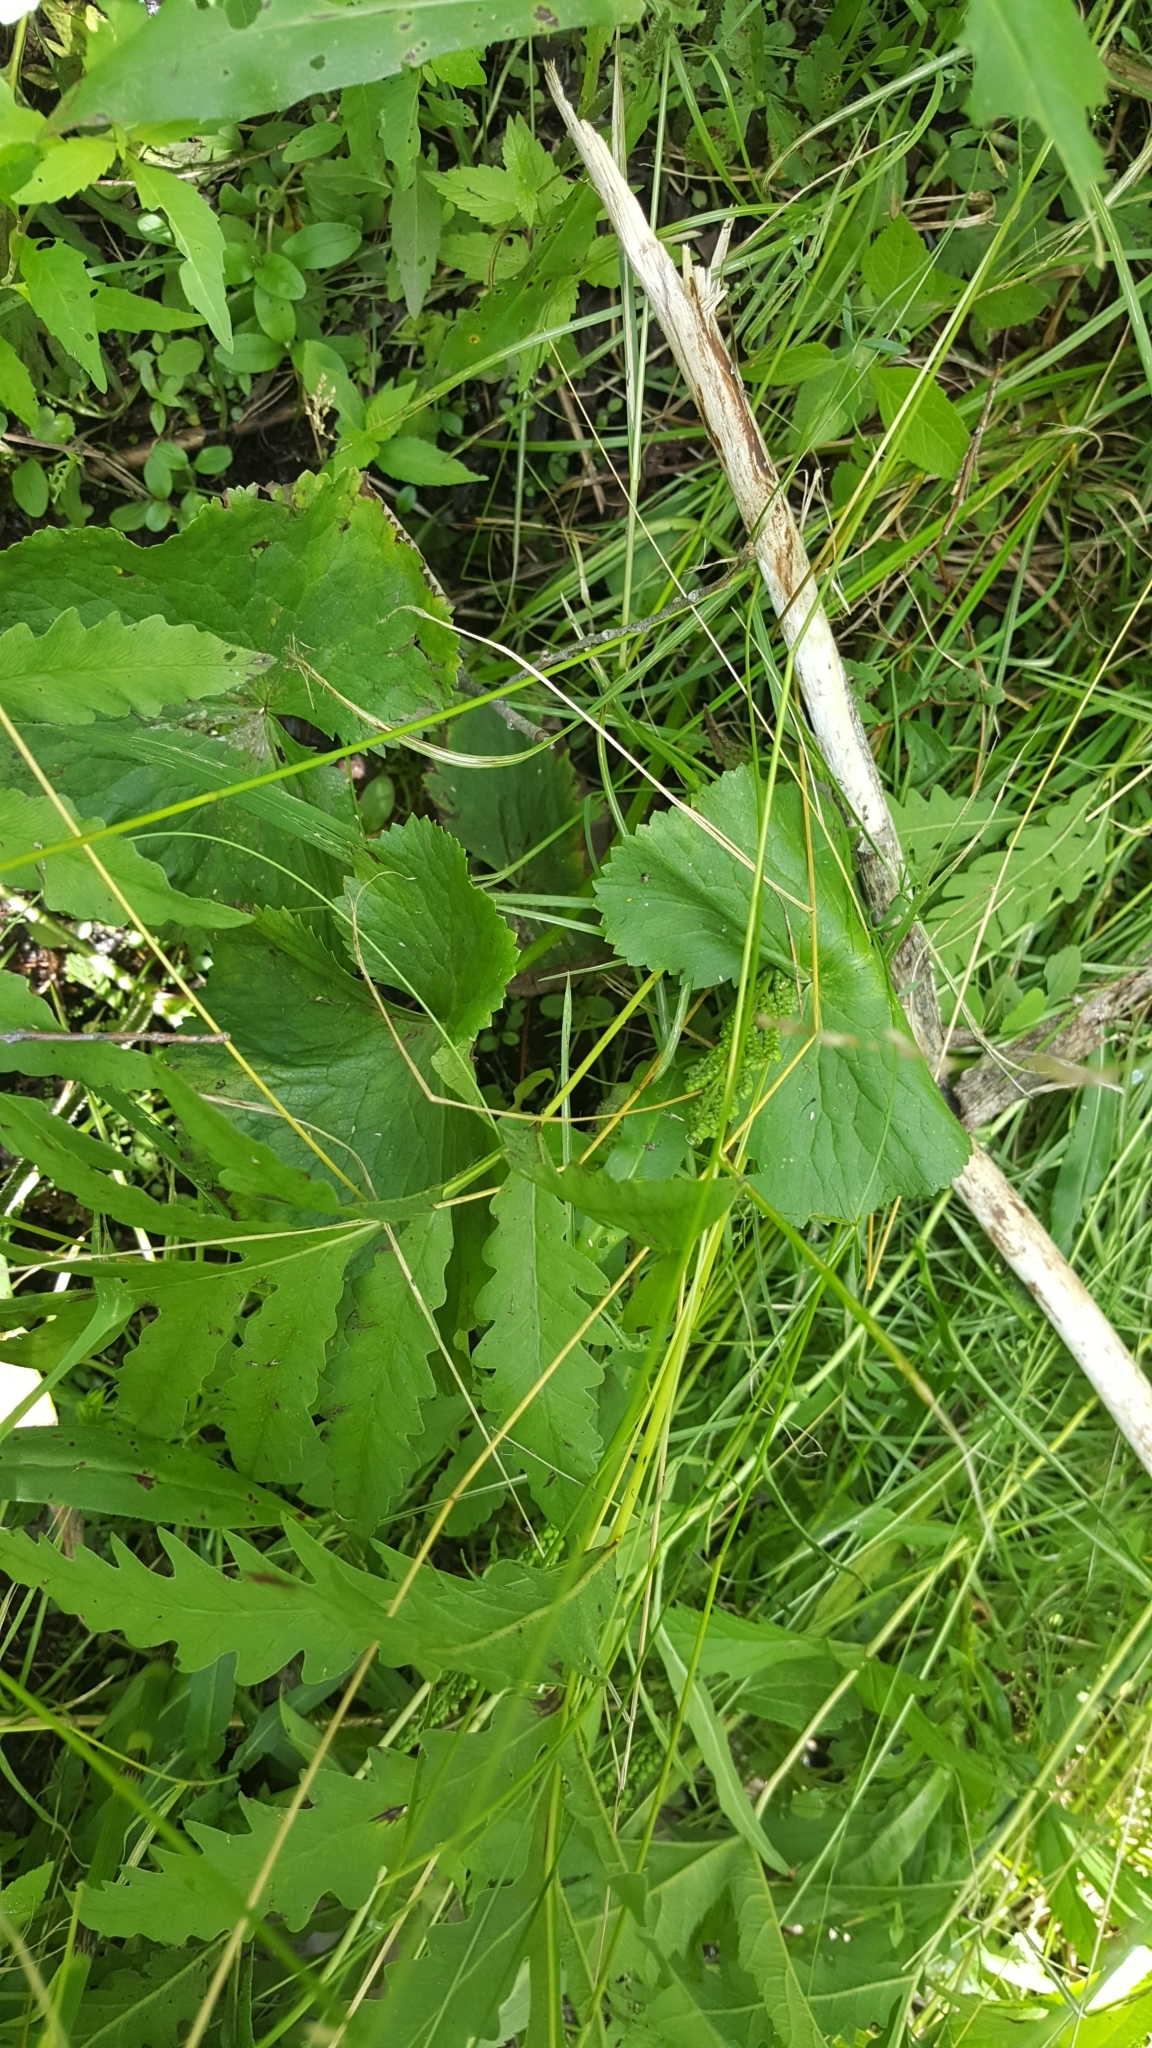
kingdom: Plantae
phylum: Tracheophyta
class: Magnoliopsida
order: Ranunculales
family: Ranunculaceae
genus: Caltha
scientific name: Caltha palustris
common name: Marsh marigold
